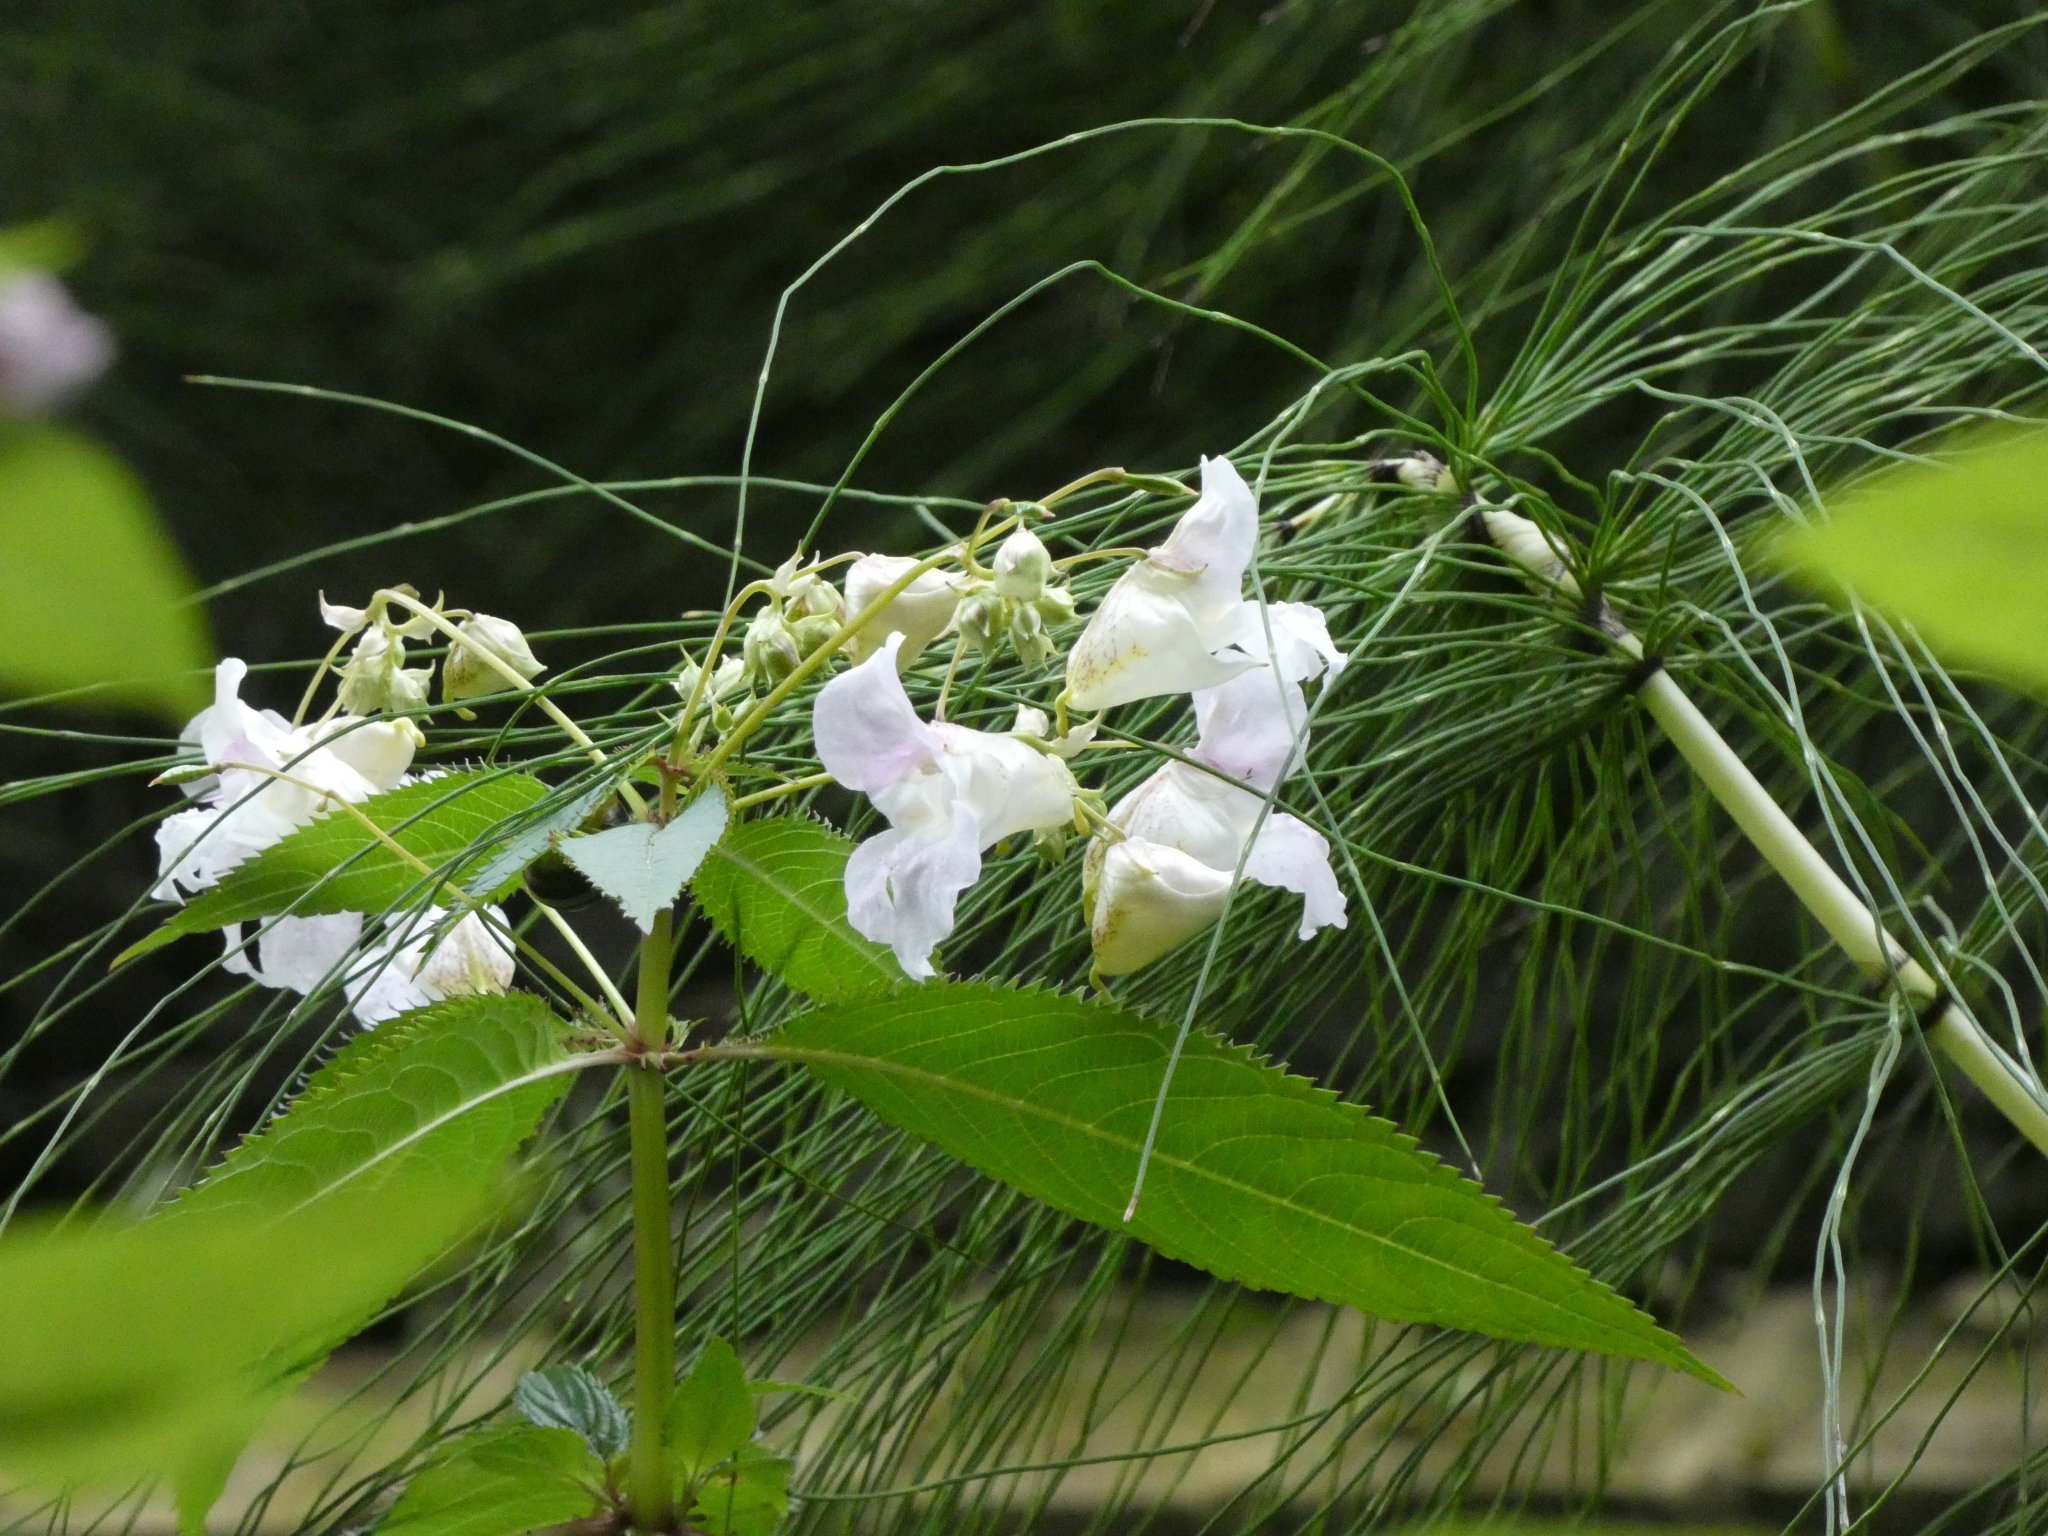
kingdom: Plantae
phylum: Tracheophyta
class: Magnoliopsida
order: Ericales
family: Balsaminaceae
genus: Impatiens
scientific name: Impatiens glandulifera
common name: Himalayan balsam
